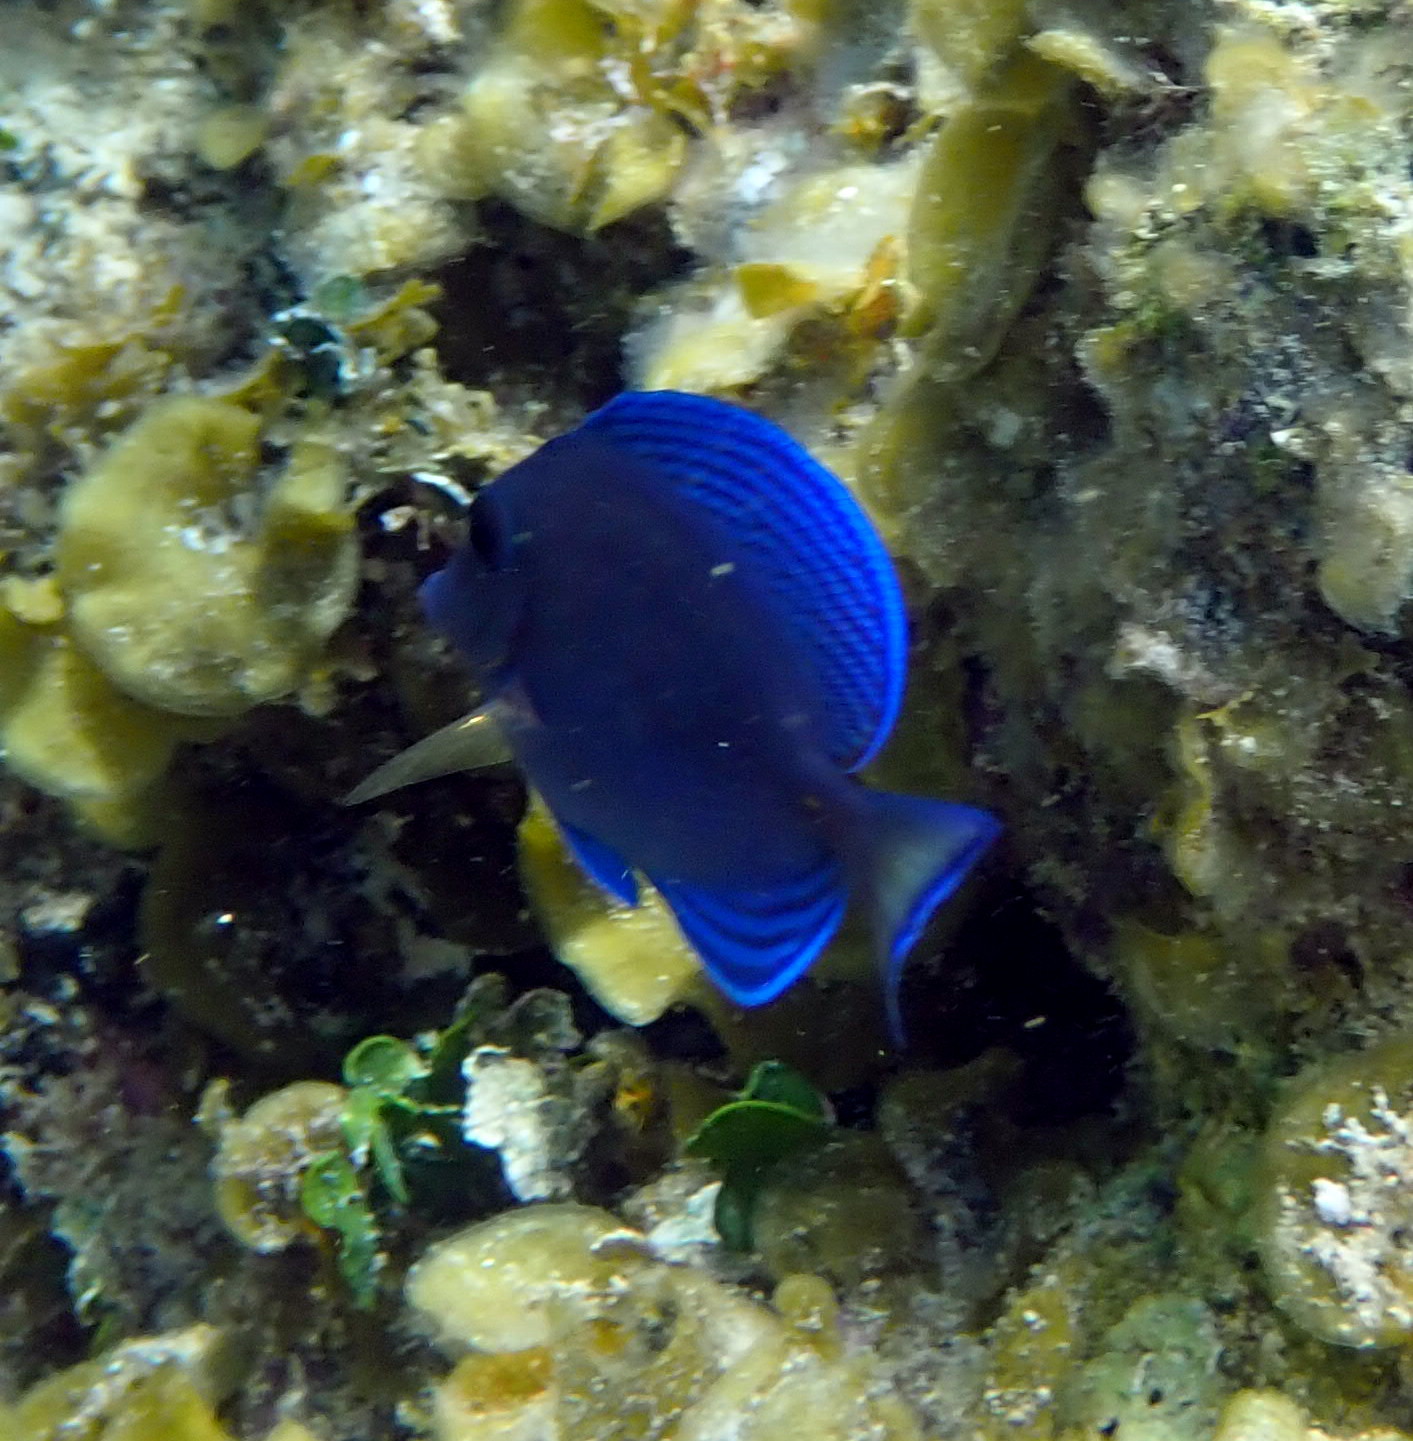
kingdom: Animalia
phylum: Chordata
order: Perciformes
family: Acanthuridae
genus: Acanthurus
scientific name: Acanthurus coeruleus
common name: Blue tang
